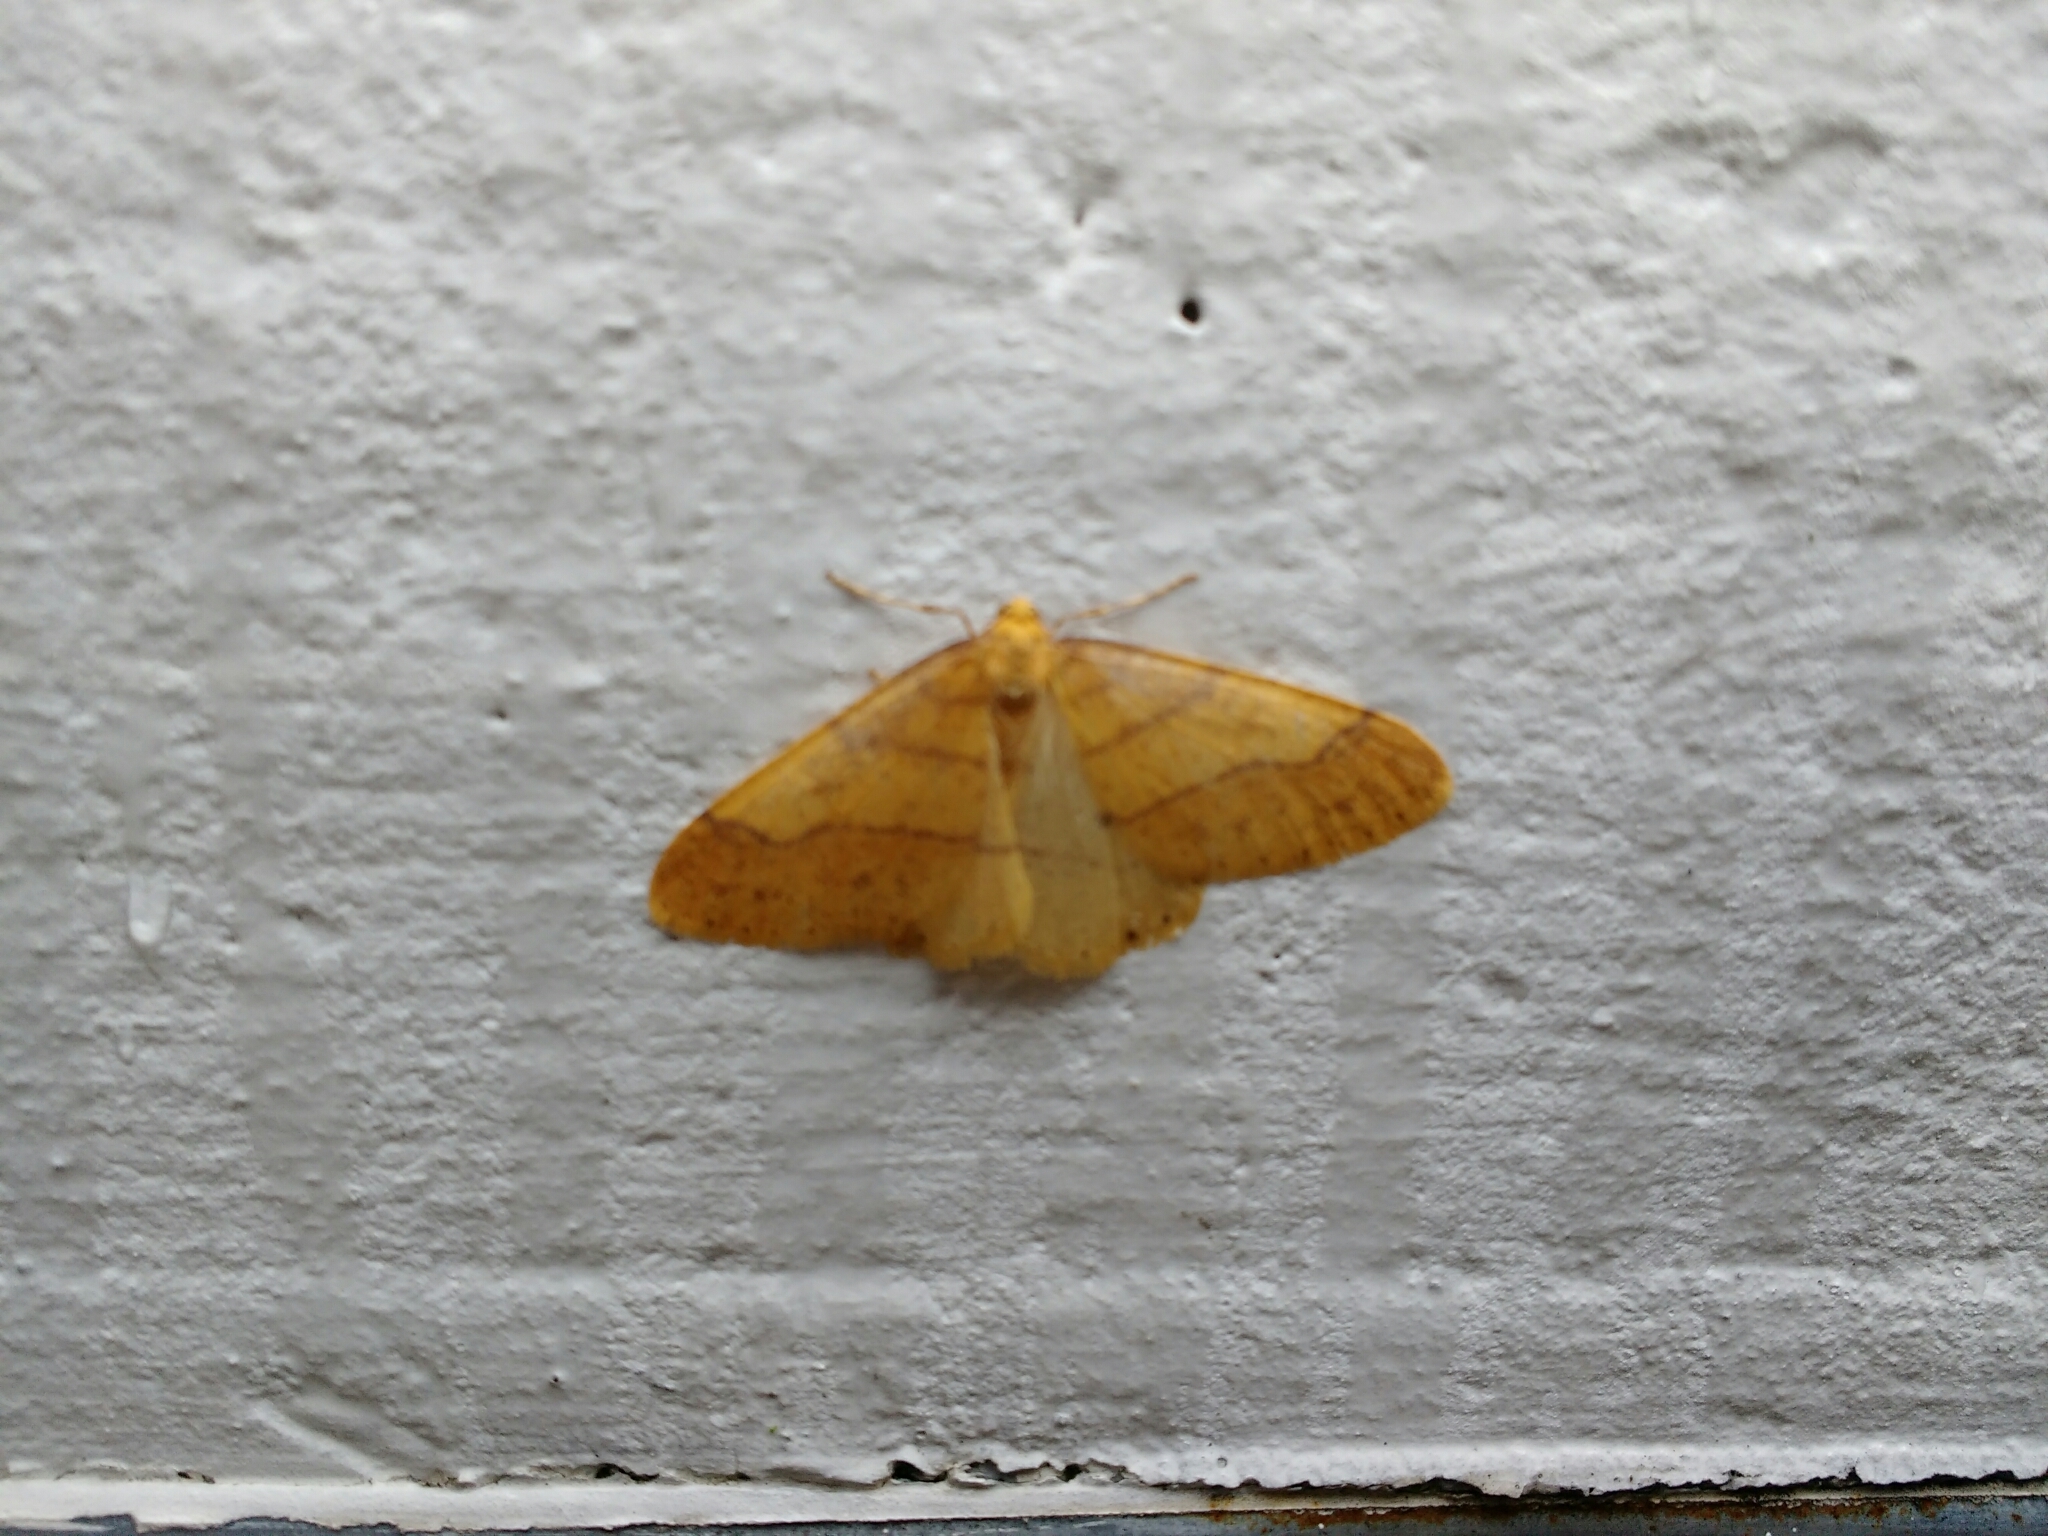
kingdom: Animalia
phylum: Arthropoda
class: Insecta
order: Lepidoptera
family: Geometridae
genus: Agriopis
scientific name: Agriopis aurantiaria
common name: Scarce umber
